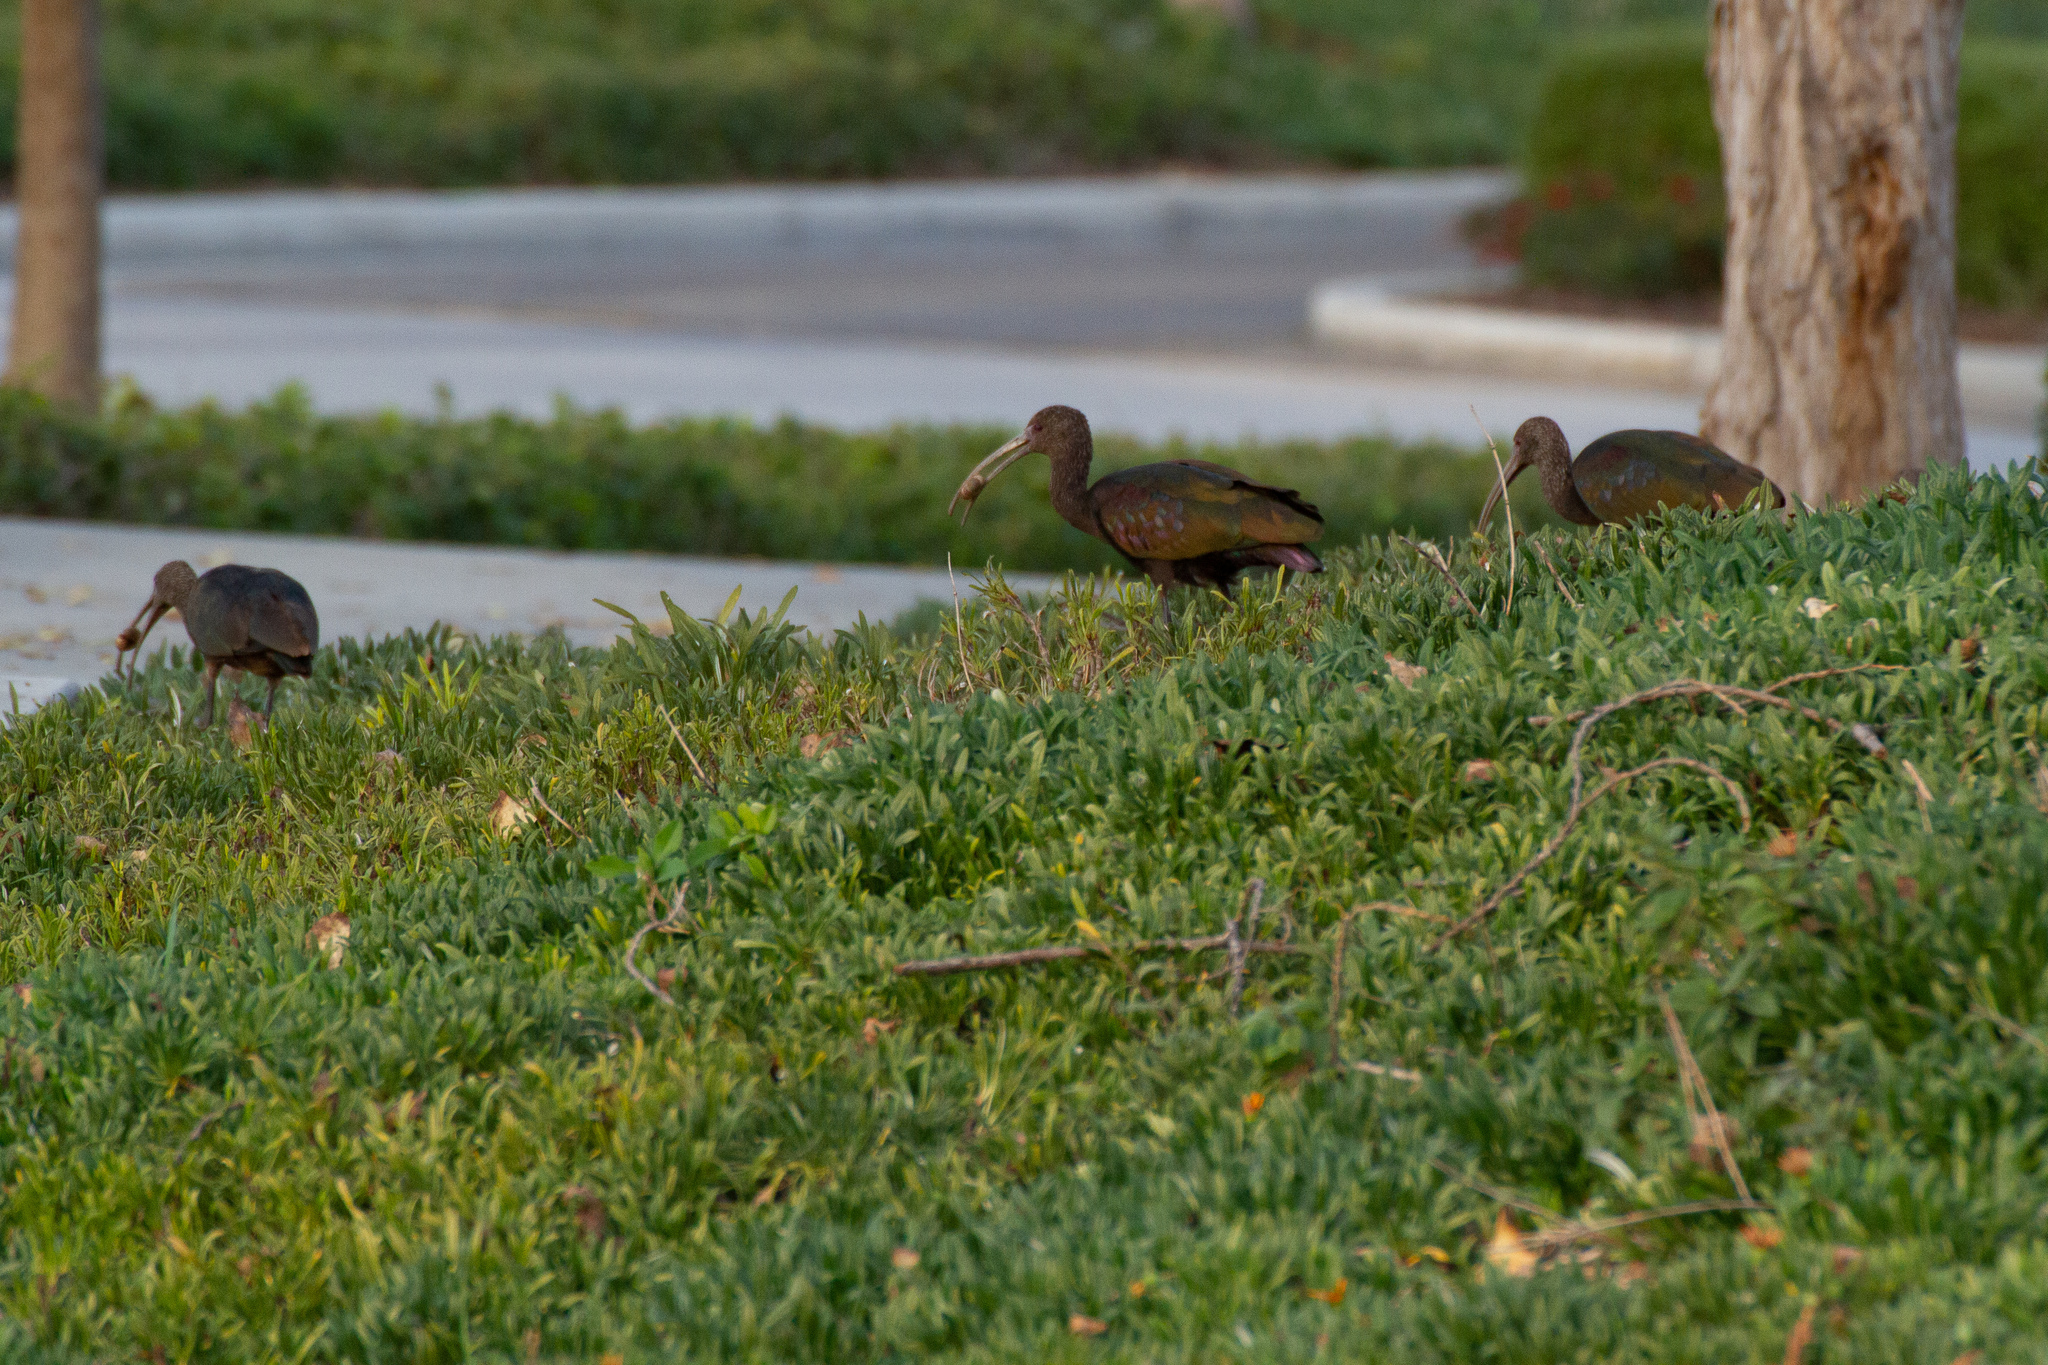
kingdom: Animalia
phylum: Chordata
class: Aves
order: Pelecaniformes
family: Threskiornithidae
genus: Plegadis
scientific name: Plegadis chihi
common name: White-faced ibis
